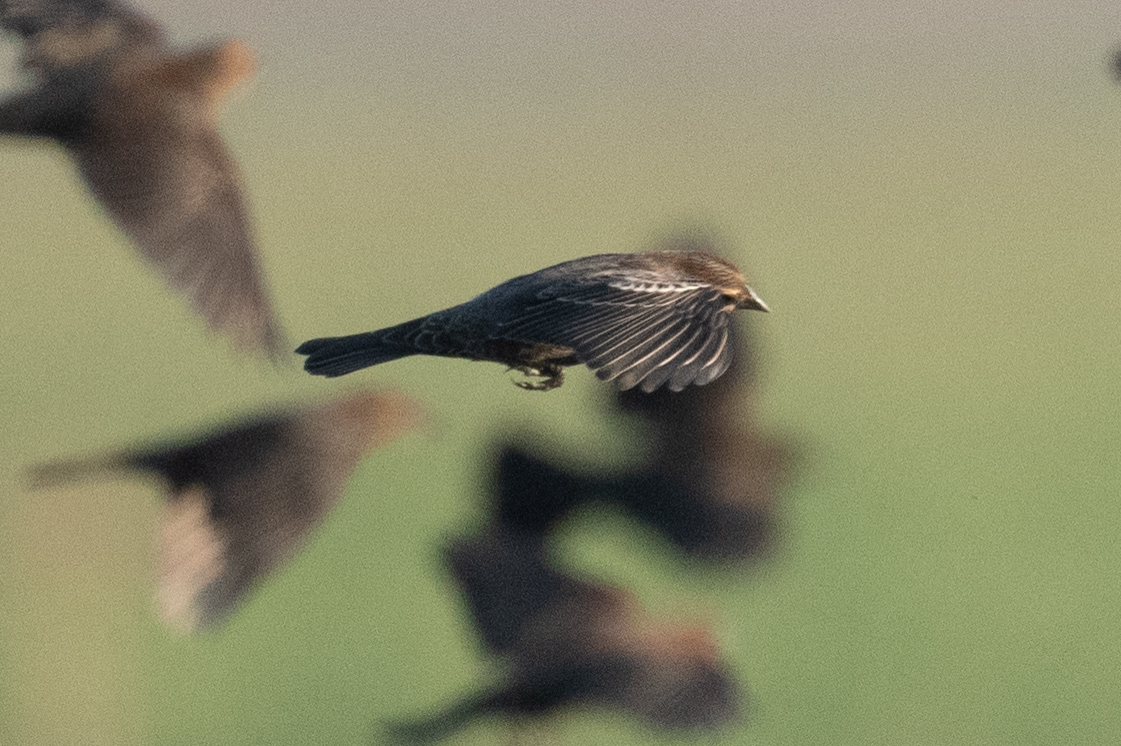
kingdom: Animalia
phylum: Chordata
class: Aves
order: Passeriformes
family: Icteridae
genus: Agelaius
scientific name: Agelaius phoeniceus
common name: Red-winged blackbird
